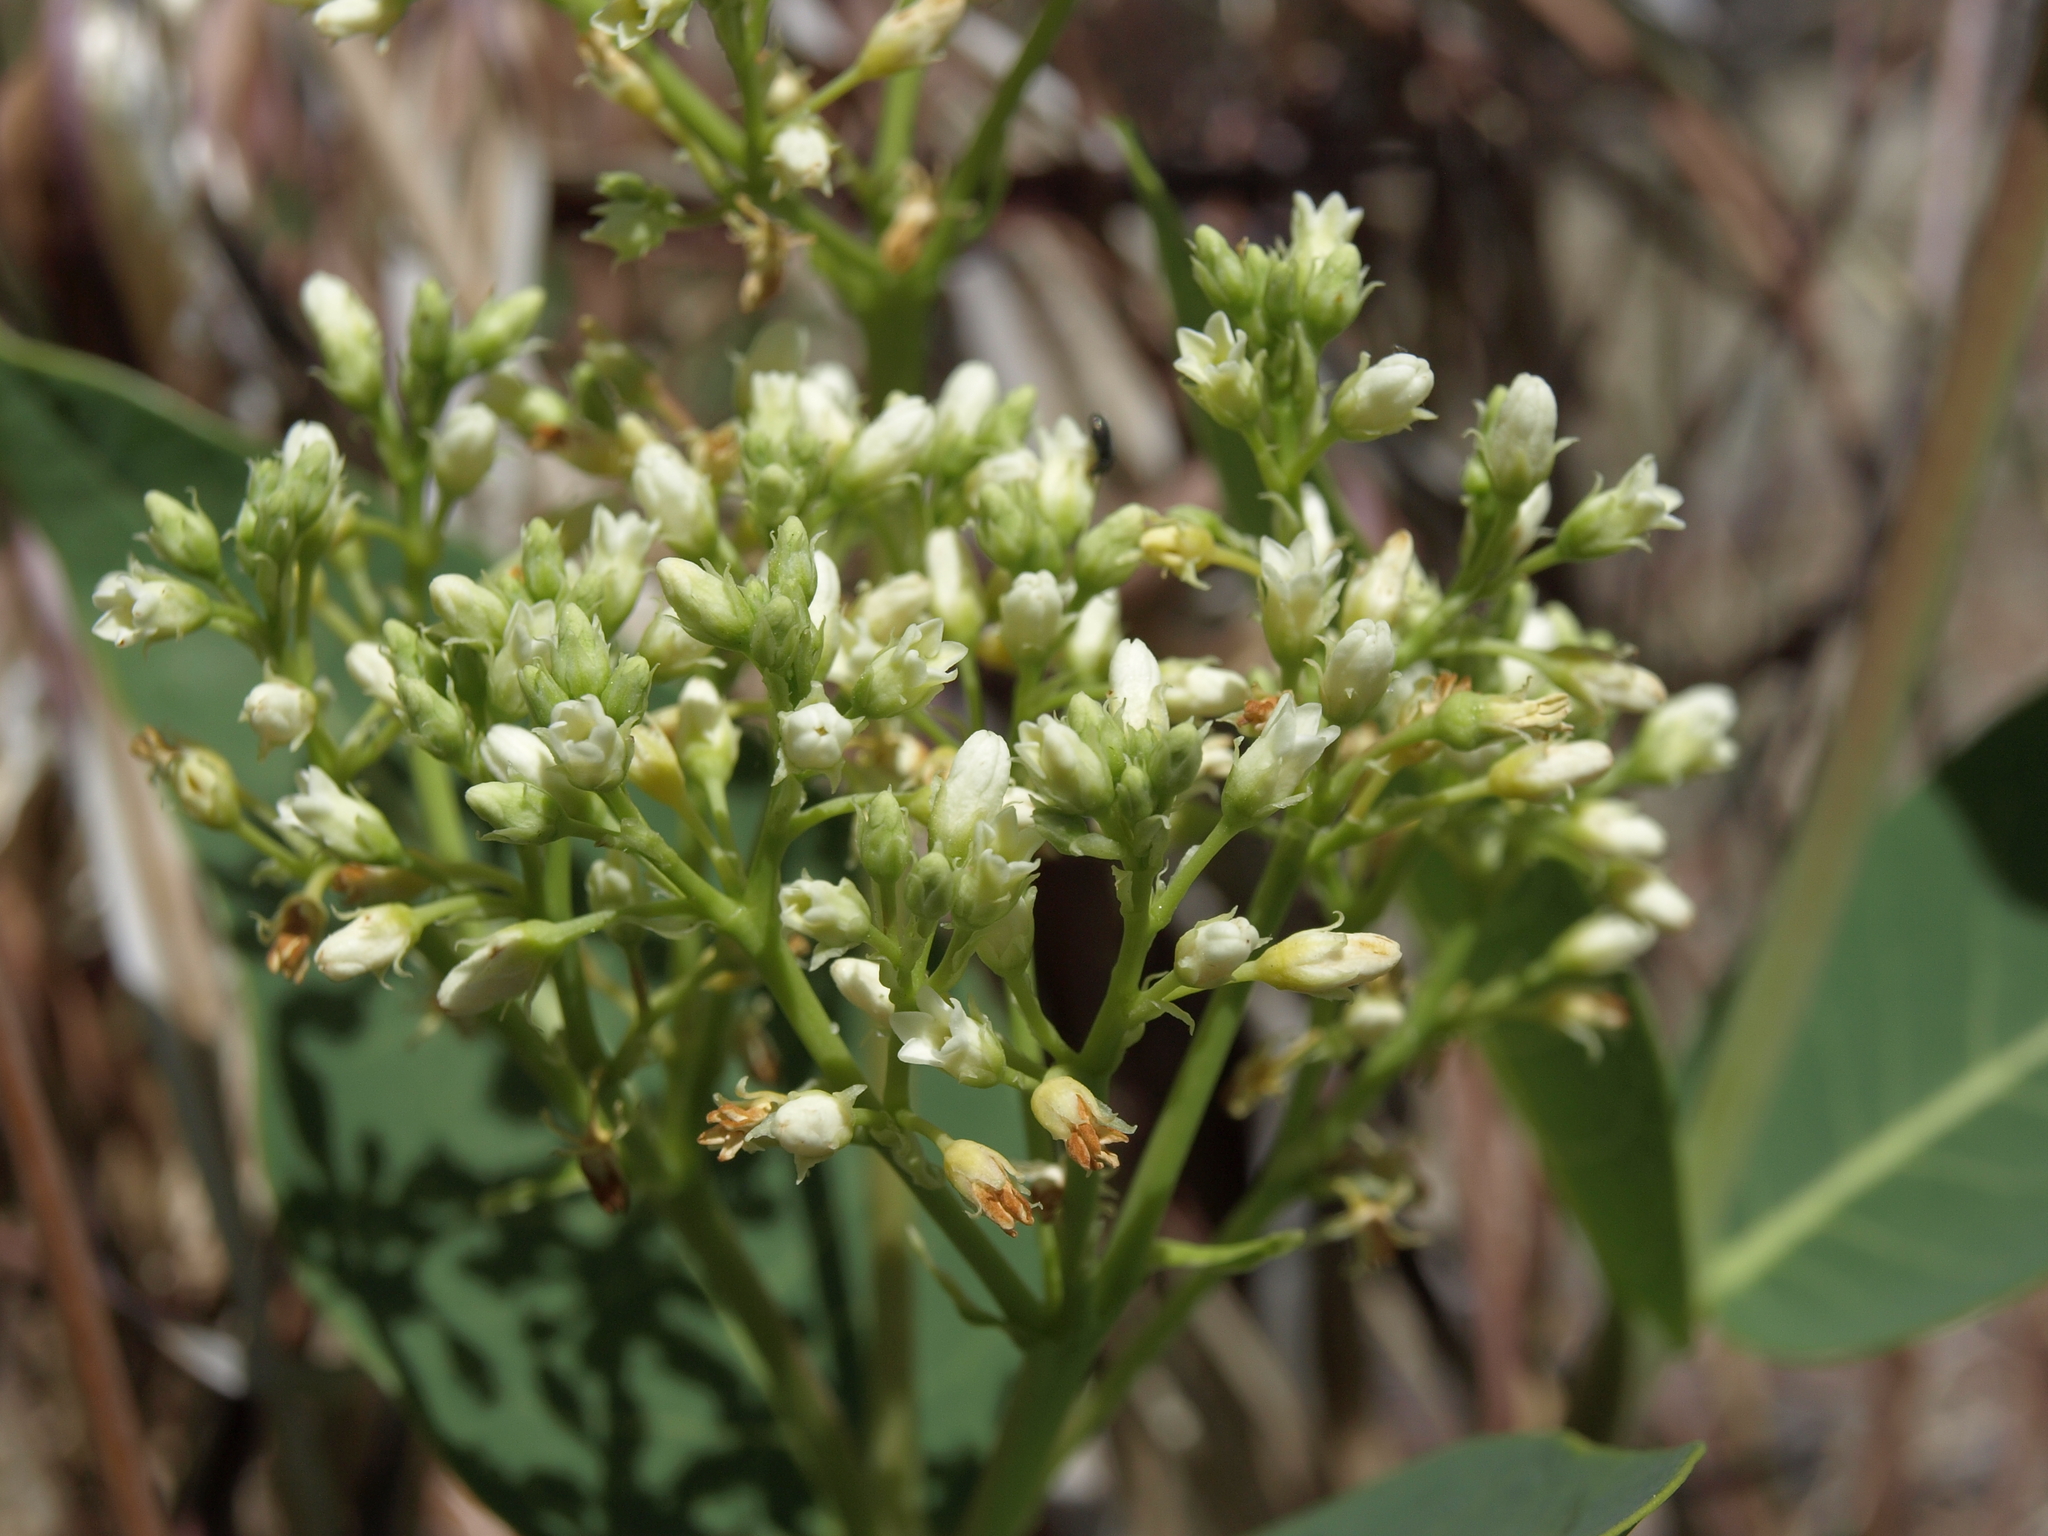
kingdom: Plantae
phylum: Tracheophyta
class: Magnoliopsida
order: Gentianales
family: Apocynaceae
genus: Apocynum
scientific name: Apocynum cannabinum
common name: Hemp dogbane
